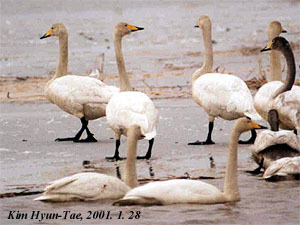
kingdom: Animalia
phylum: Chordata
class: Aves
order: Anseriformes
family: Anatidae
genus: Cygnus
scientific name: Cygnus cygnus
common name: Whooper swan
